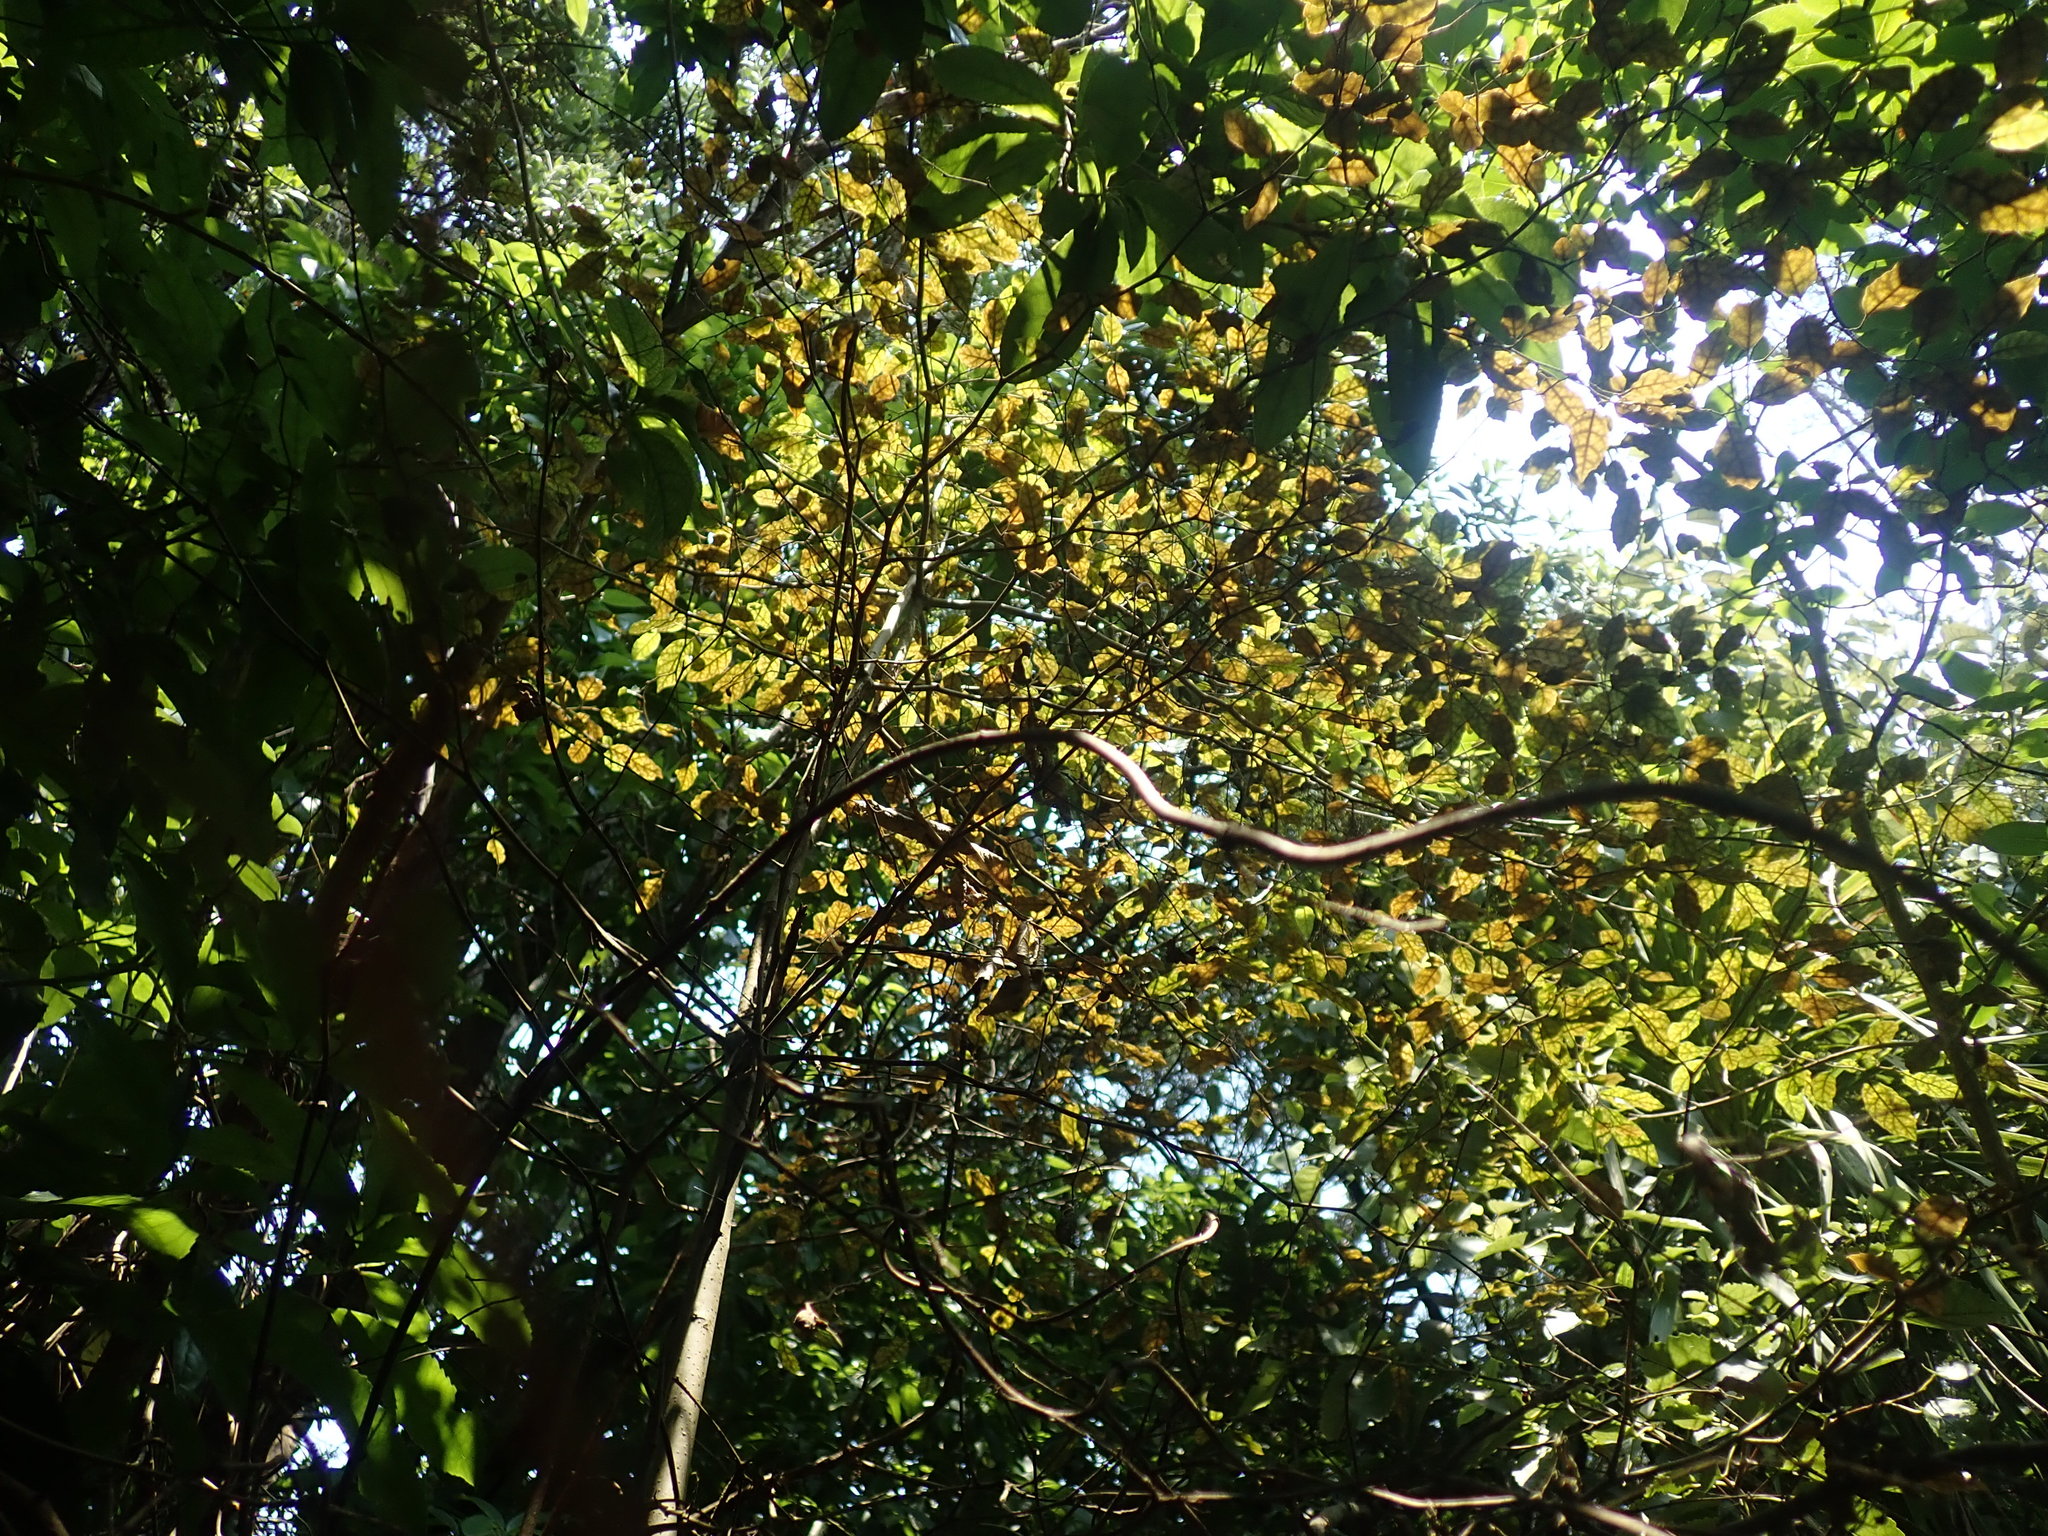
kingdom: Plantae
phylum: Tracheophyta
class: Magnoliopsida
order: Asterales
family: Rousseaceae
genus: Carpodetus
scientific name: Carpodetus serratus
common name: White mapau
